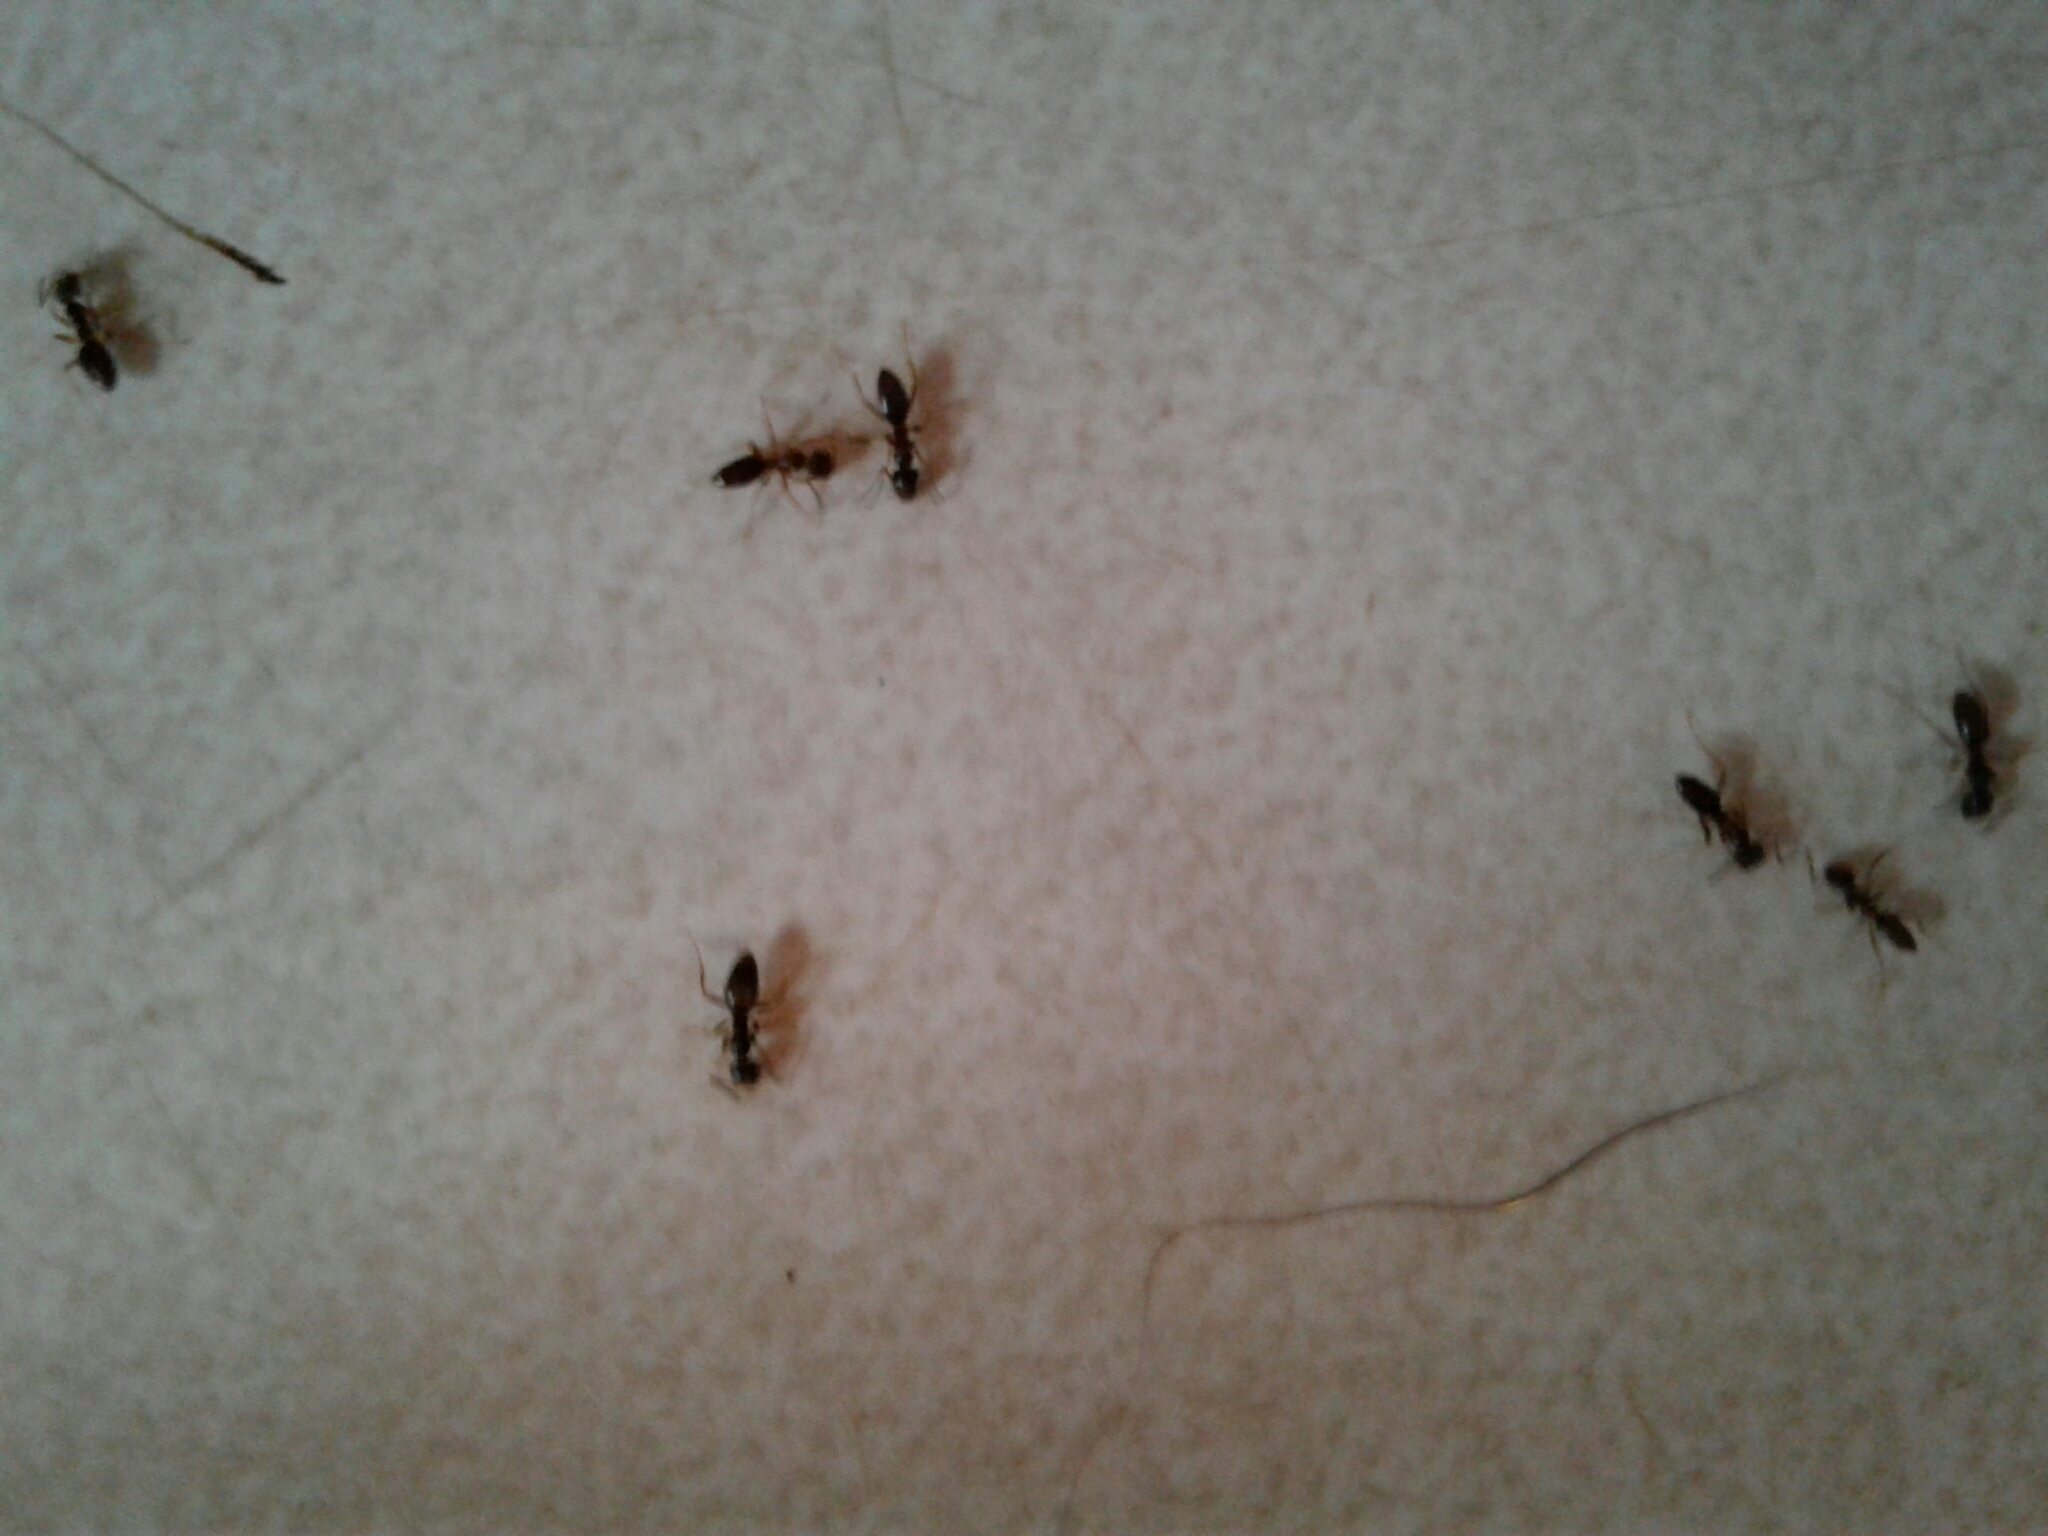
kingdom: Animalia
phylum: Arthropoda
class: Insecta
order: Hymenoptera
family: Formicidae
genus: Tapinoma
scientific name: Tapinoma sessile
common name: Odorous house ant
